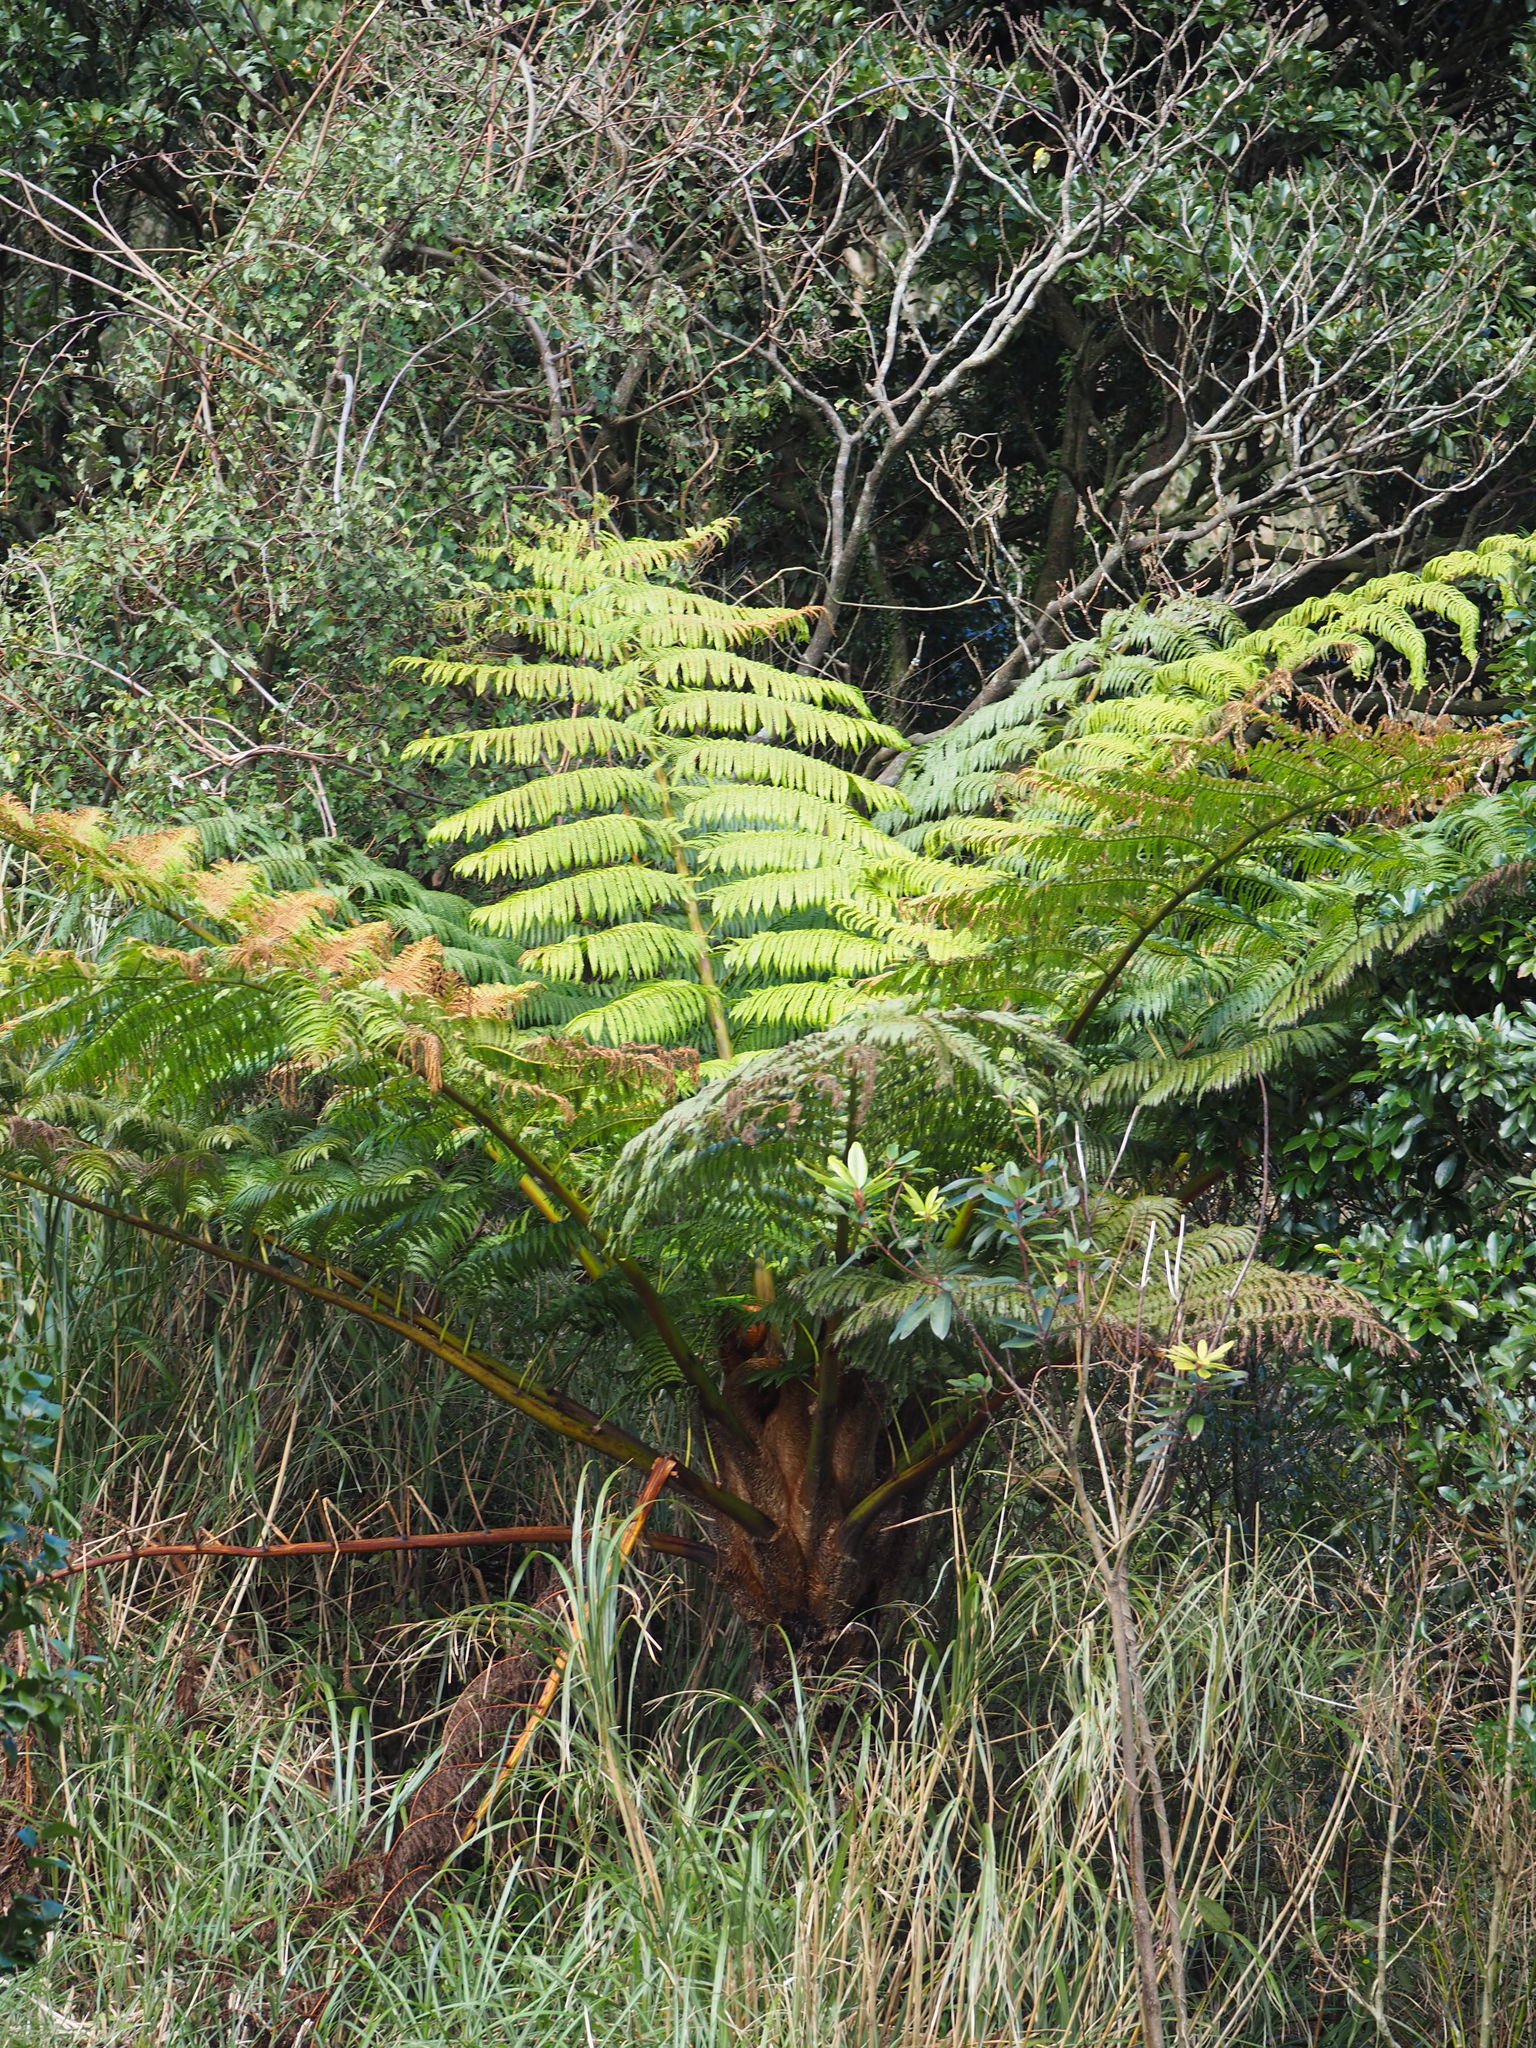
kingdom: Plantae
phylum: Tracheophyta
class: Polypodiopsida
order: Cyatheales
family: Cyatheaceae
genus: Alsophila
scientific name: Alsophila lepifera
